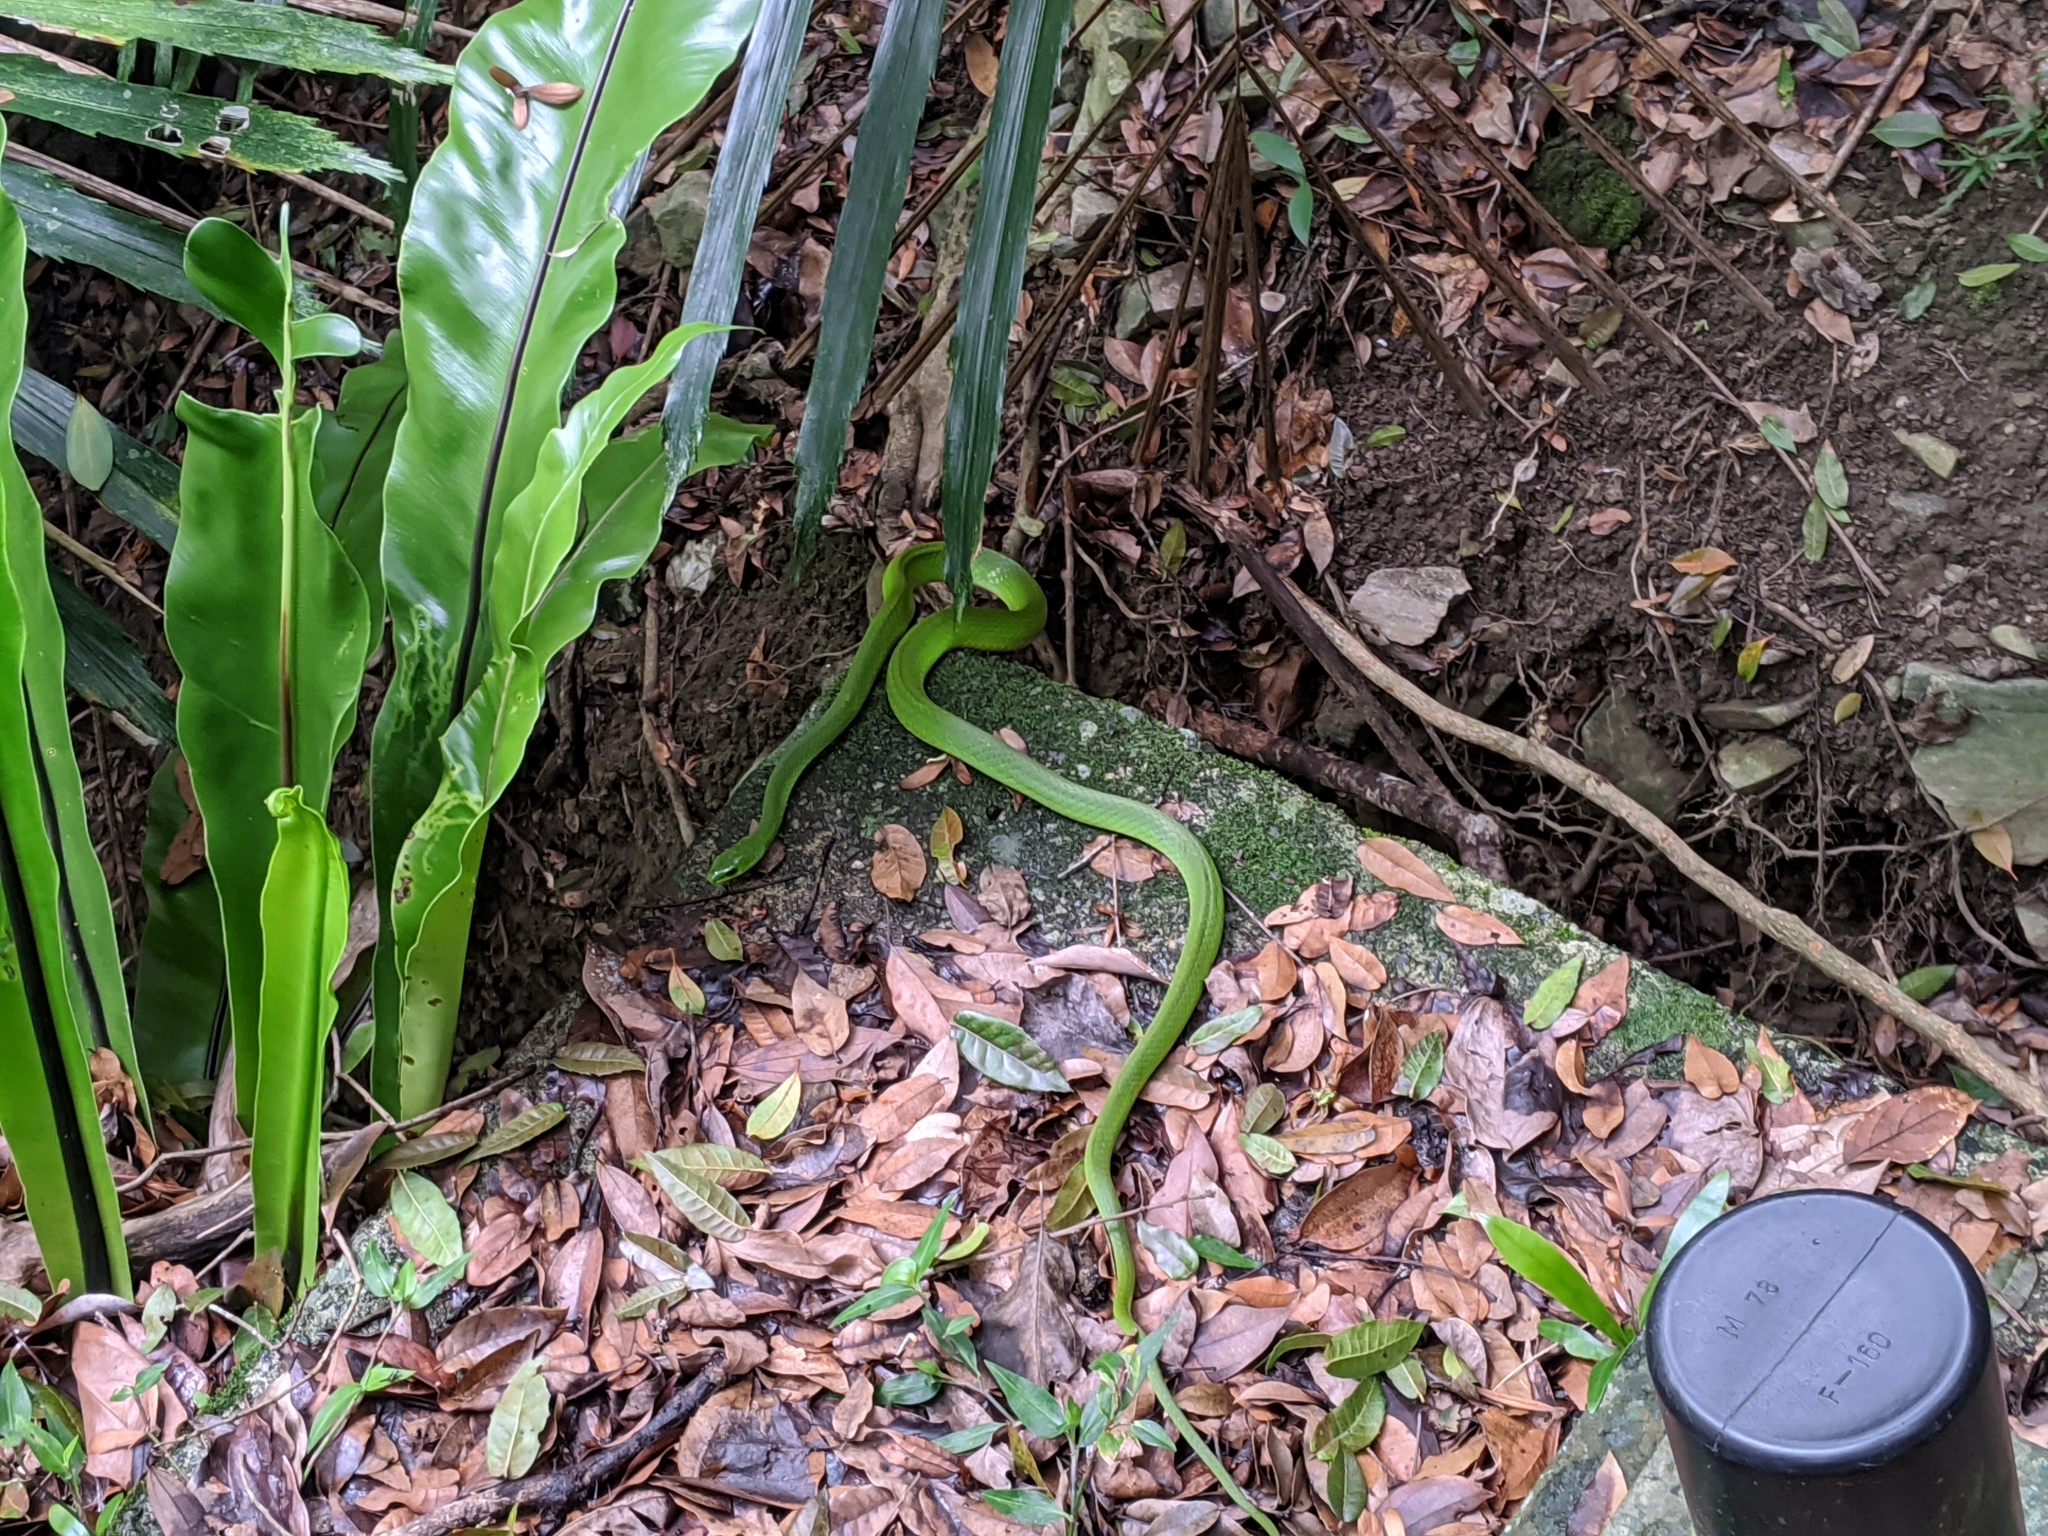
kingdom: Animalia
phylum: Chordata
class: Squamata
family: Colubridae
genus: Ptyas
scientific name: Ptyas major
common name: Chinese green snake
